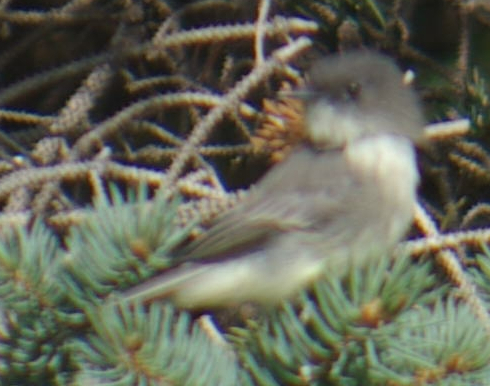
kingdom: Animalia
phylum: Chordata
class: Aves
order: Passeriformes
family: Tyrannidae
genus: Sayornis
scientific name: Sayornis phoebe
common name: Eastern phoebe
